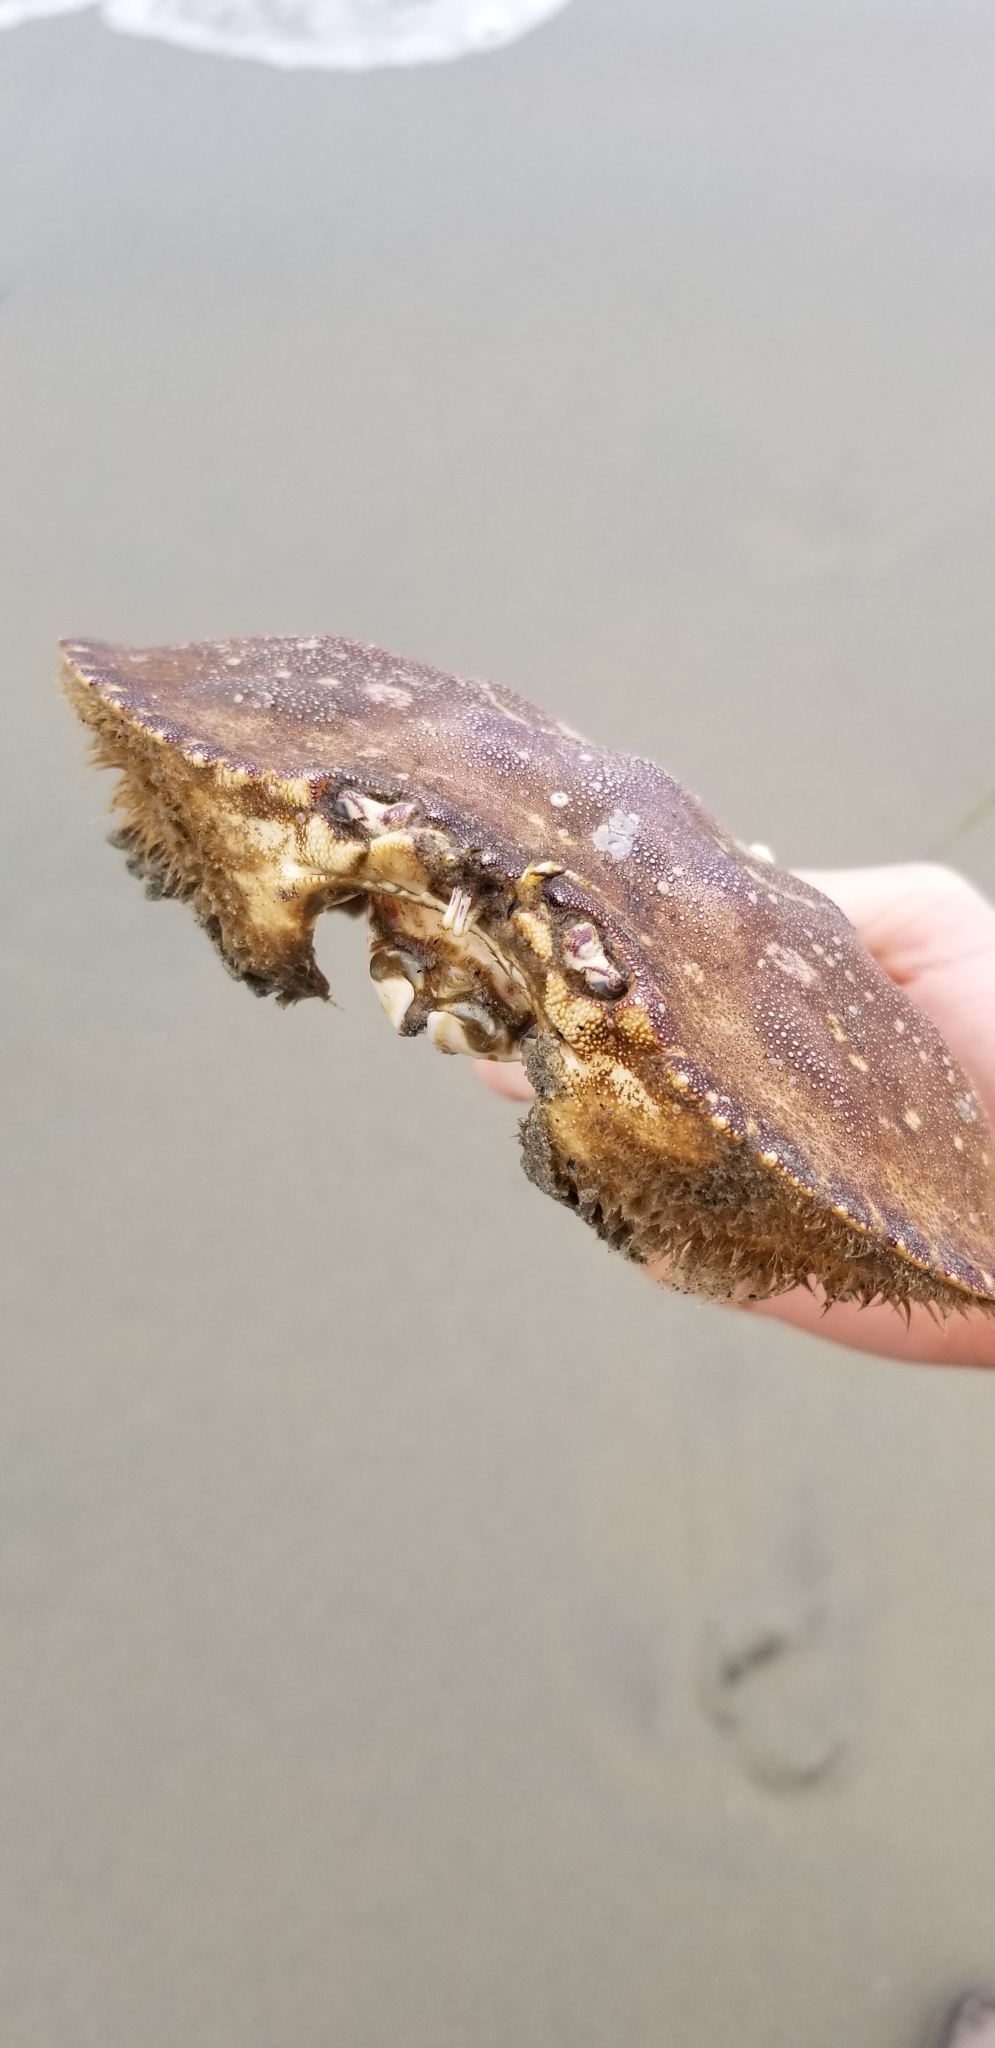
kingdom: Animalia
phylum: Arthropoda
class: Malacostraca
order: Decapoda
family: Cancridae
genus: Metacarcinus
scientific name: Metacarcinus magister
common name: Californian crab
